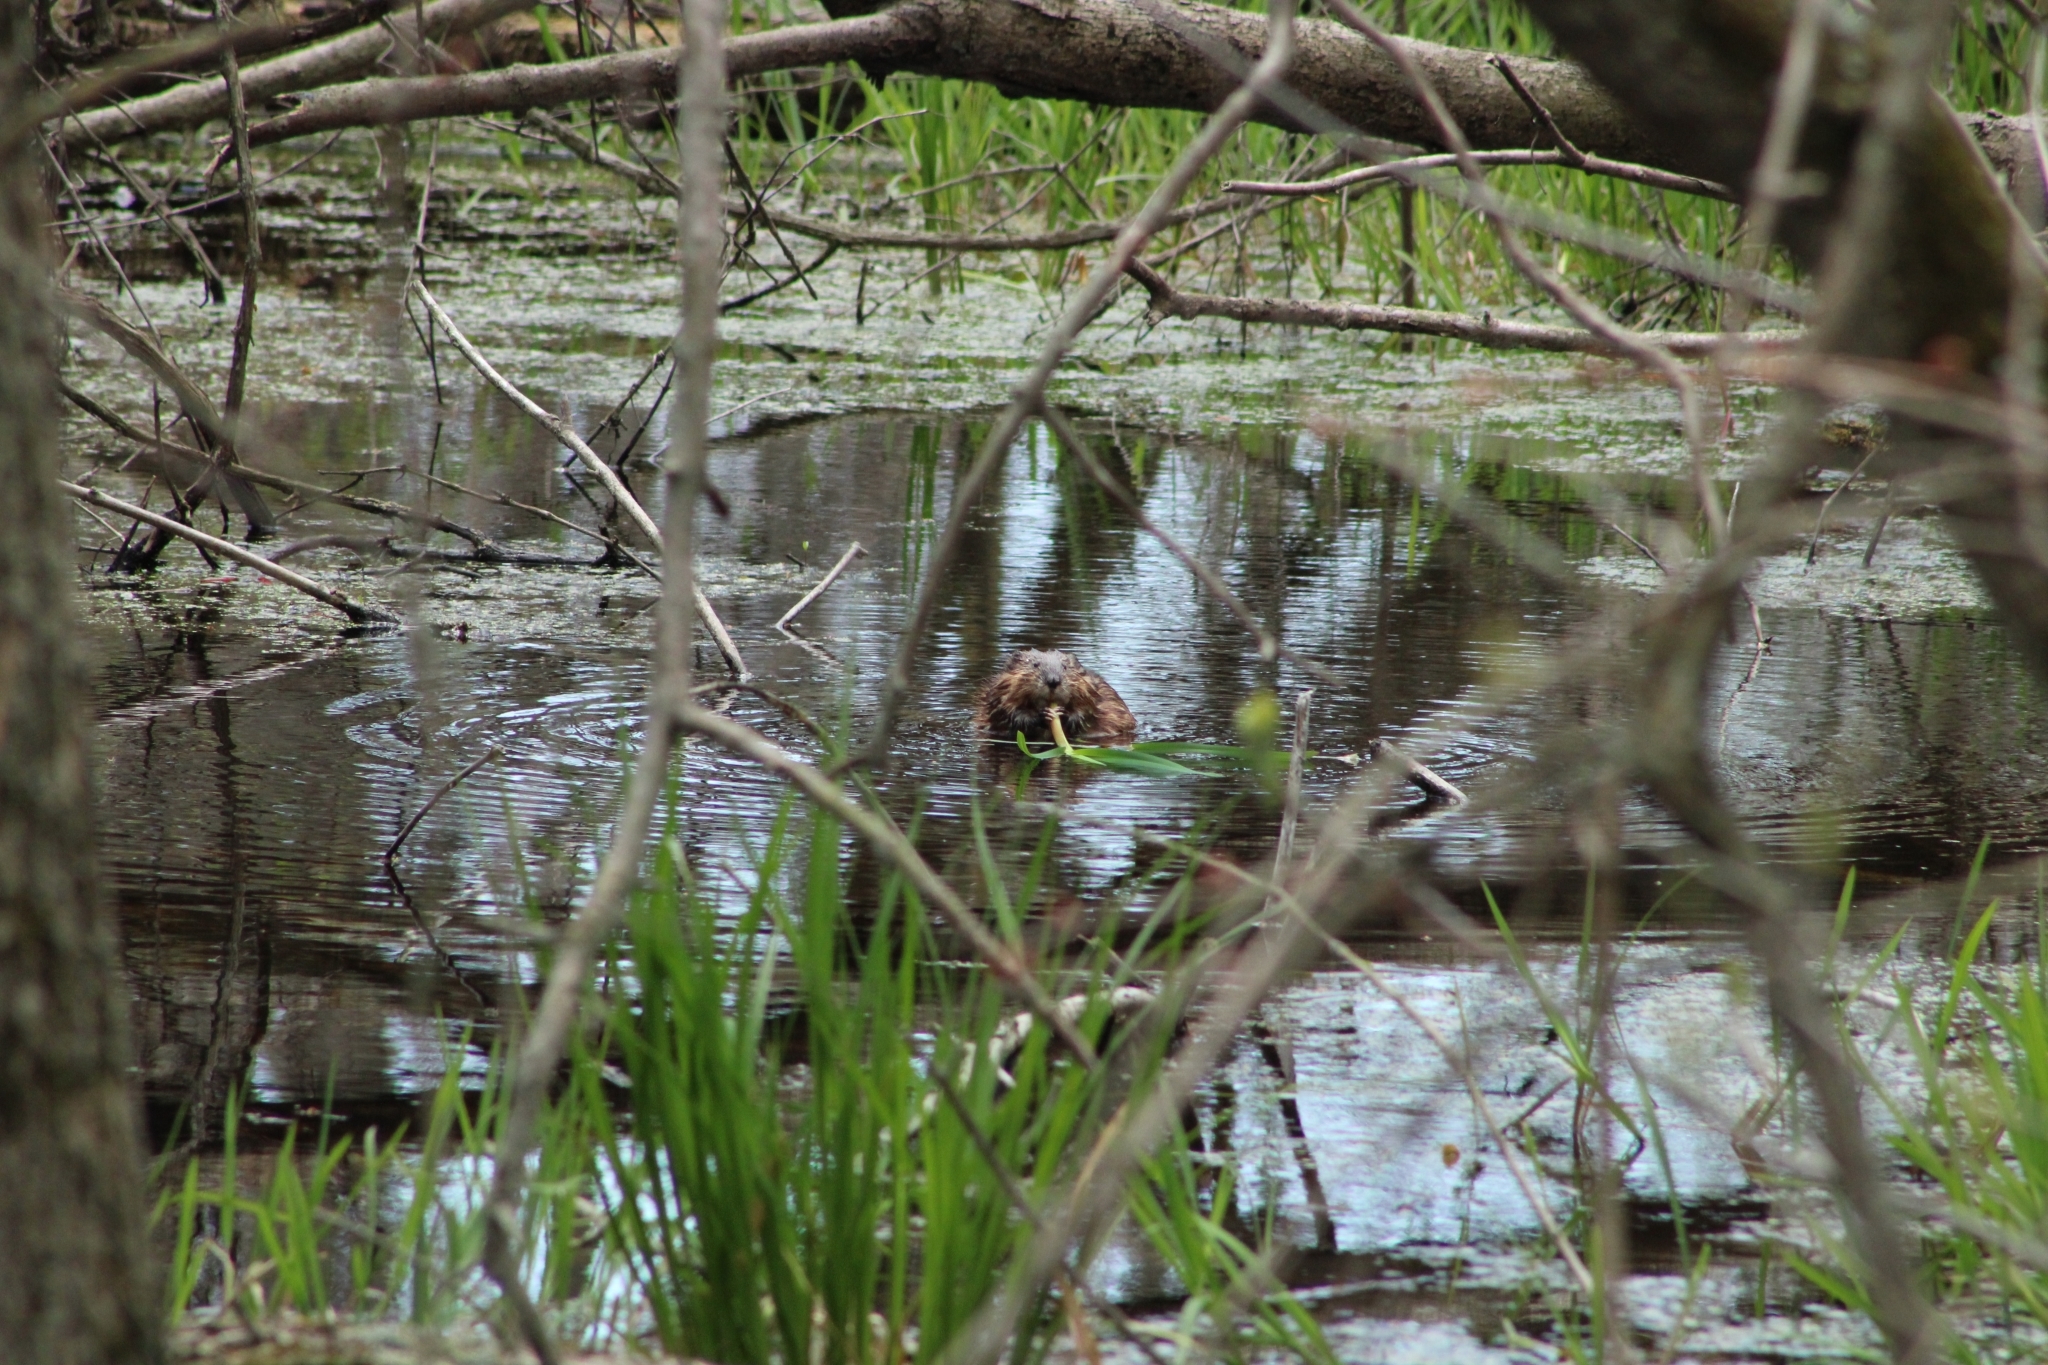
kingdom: Animalia
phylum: Chordata
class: Mammalia
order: Rodentia
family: Cricetidae
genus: Ondatra
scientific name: Ondatra zibethicus
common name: Muskrat
